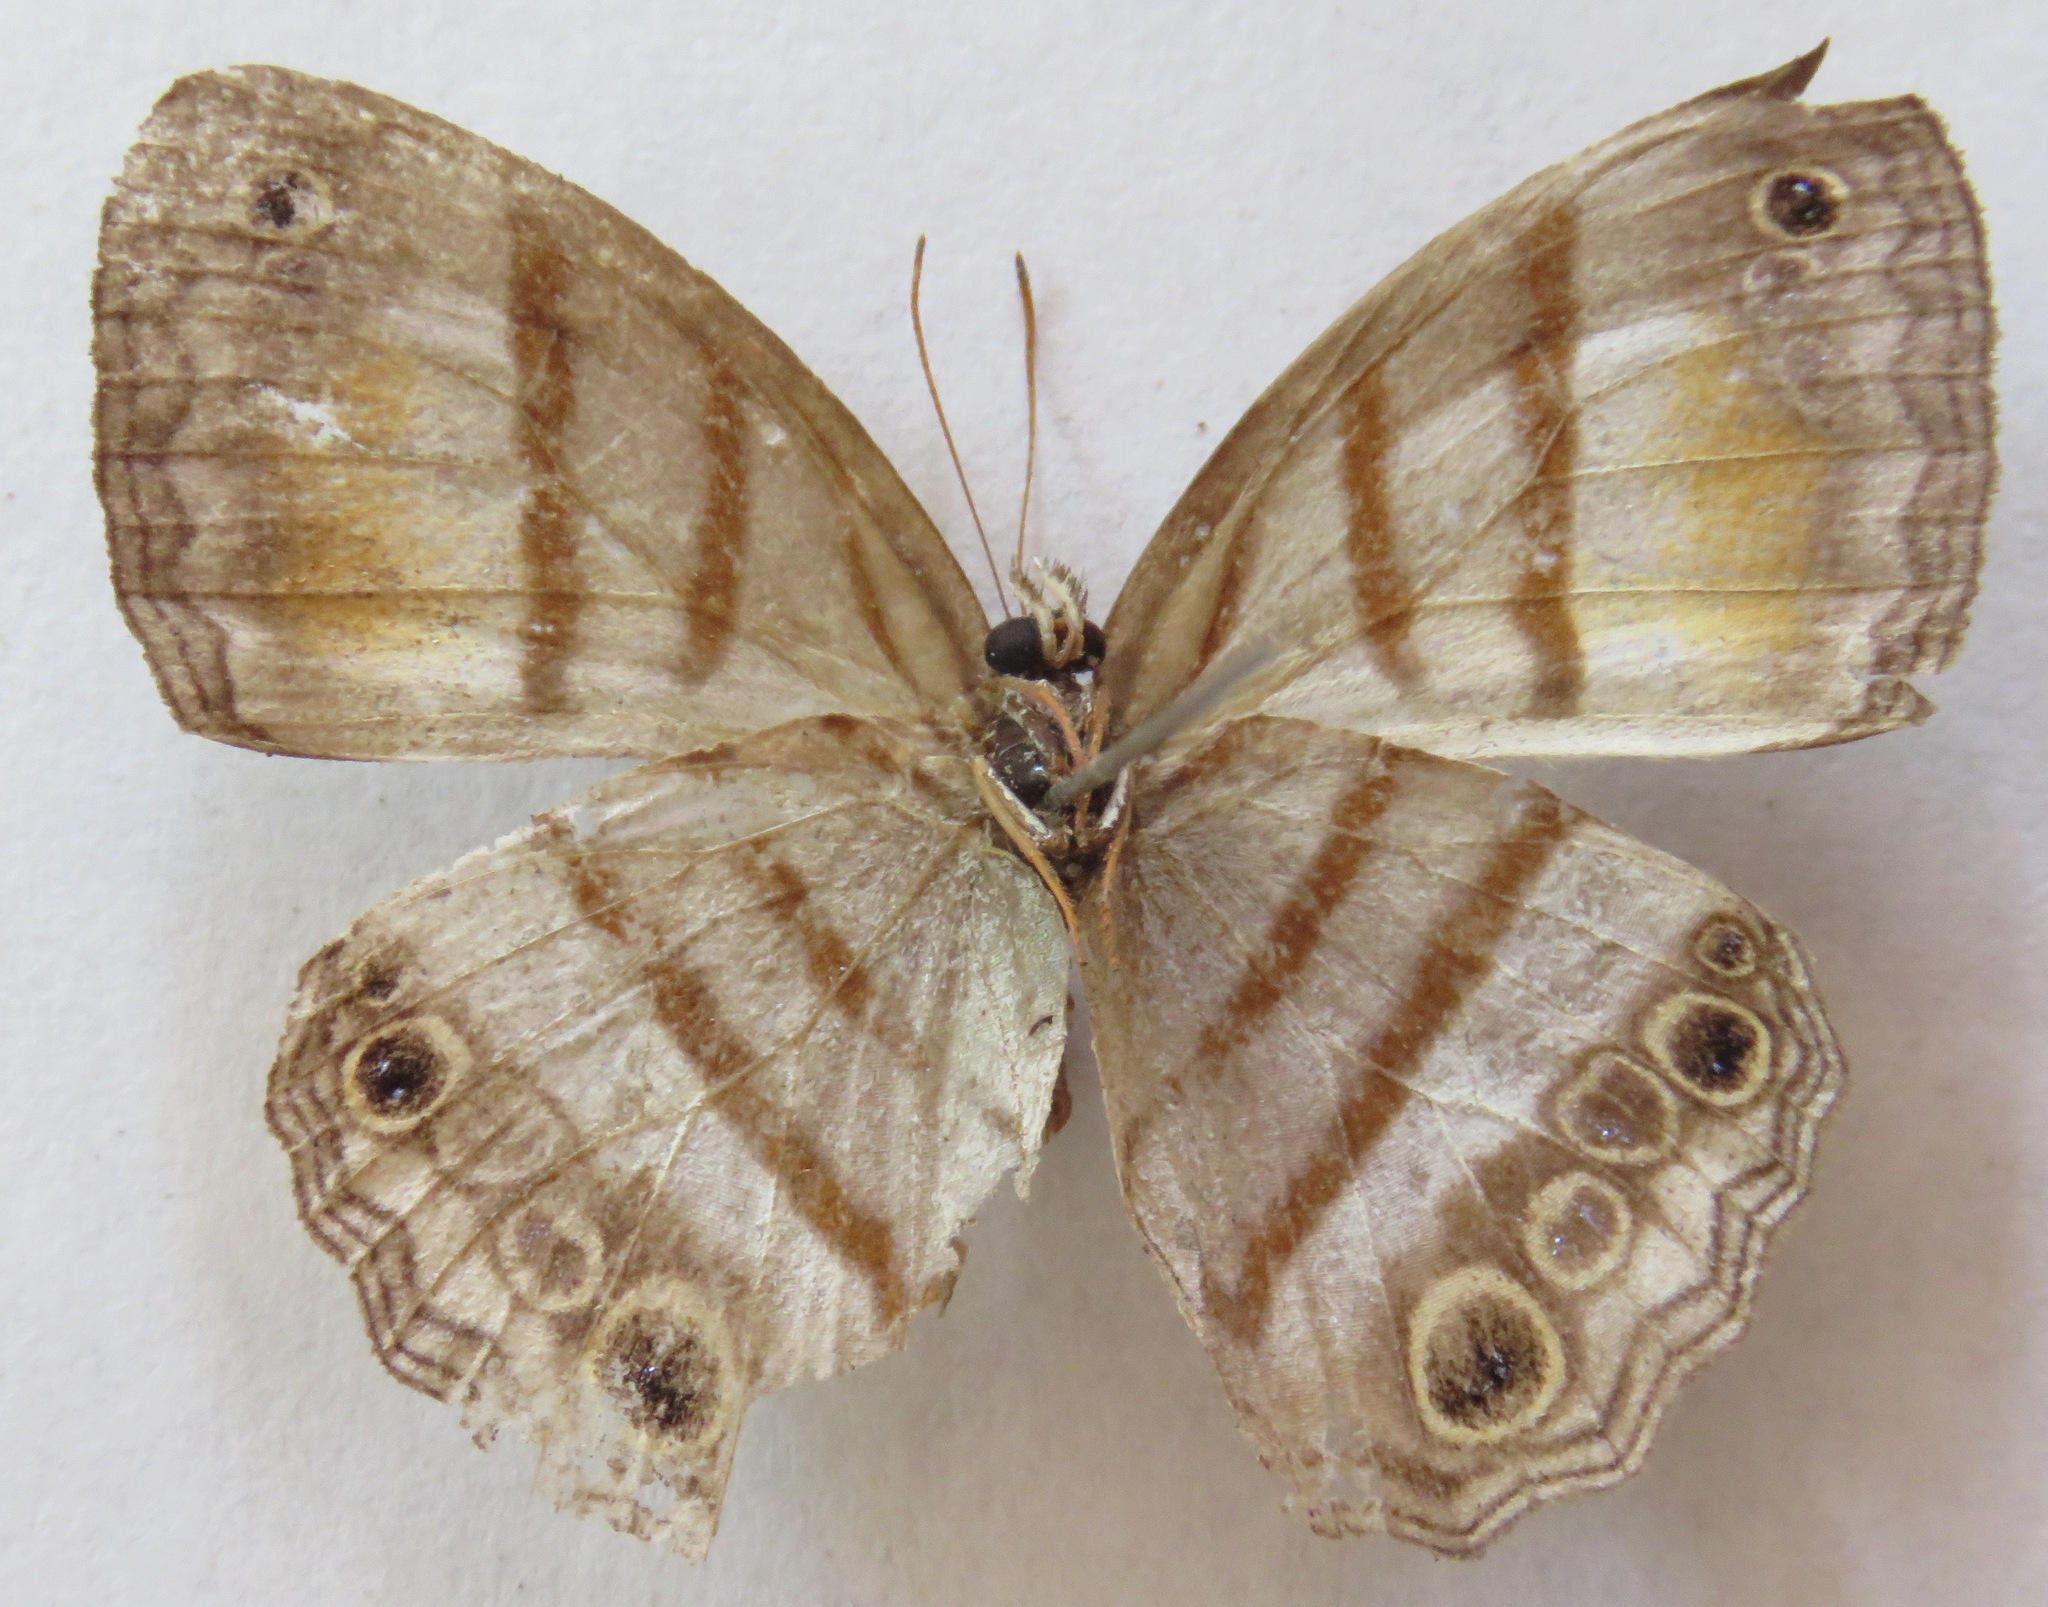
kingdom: Animalia
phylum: Arthropoda
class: Insecta
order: Lepidoptera
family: Nymphalidae
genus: Modica
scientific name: Modica
